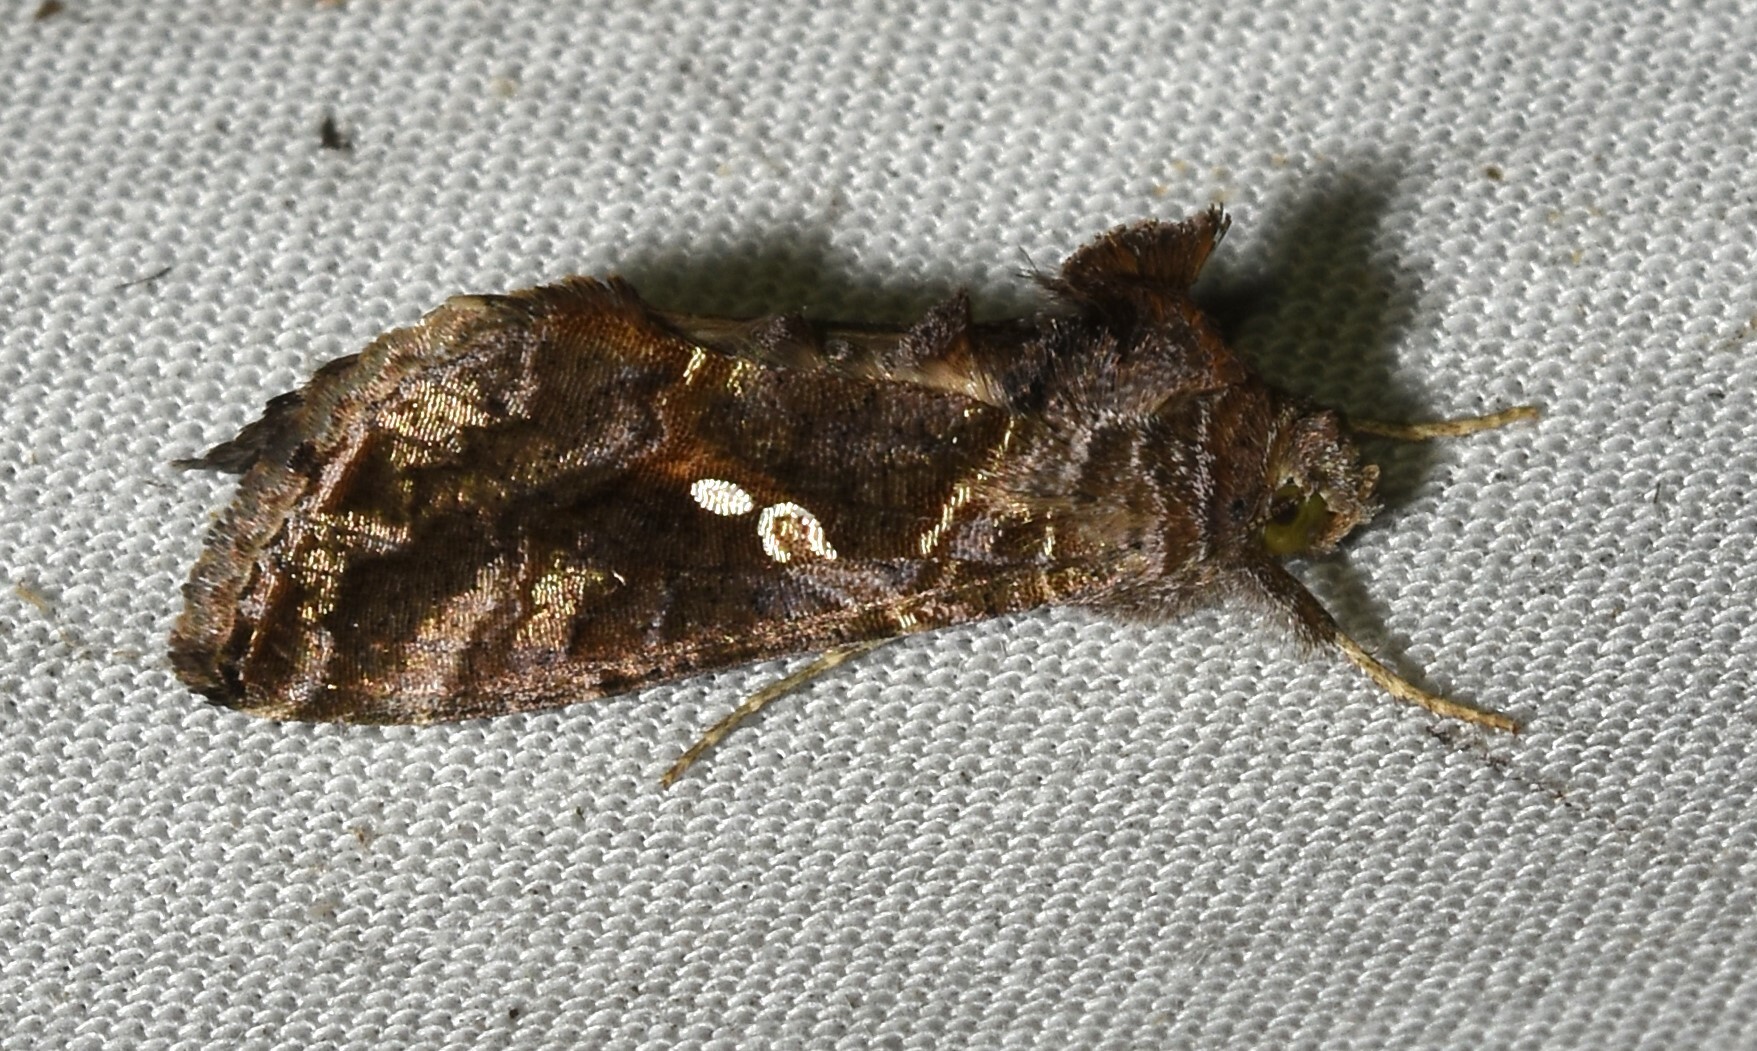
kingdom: Animalia
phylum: Arthropoda
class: Insecta
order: Lepidoptera
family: Noctuidae
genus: Chrysodeixis
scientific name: Chrysodeixis includens
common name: Cutworm moth
